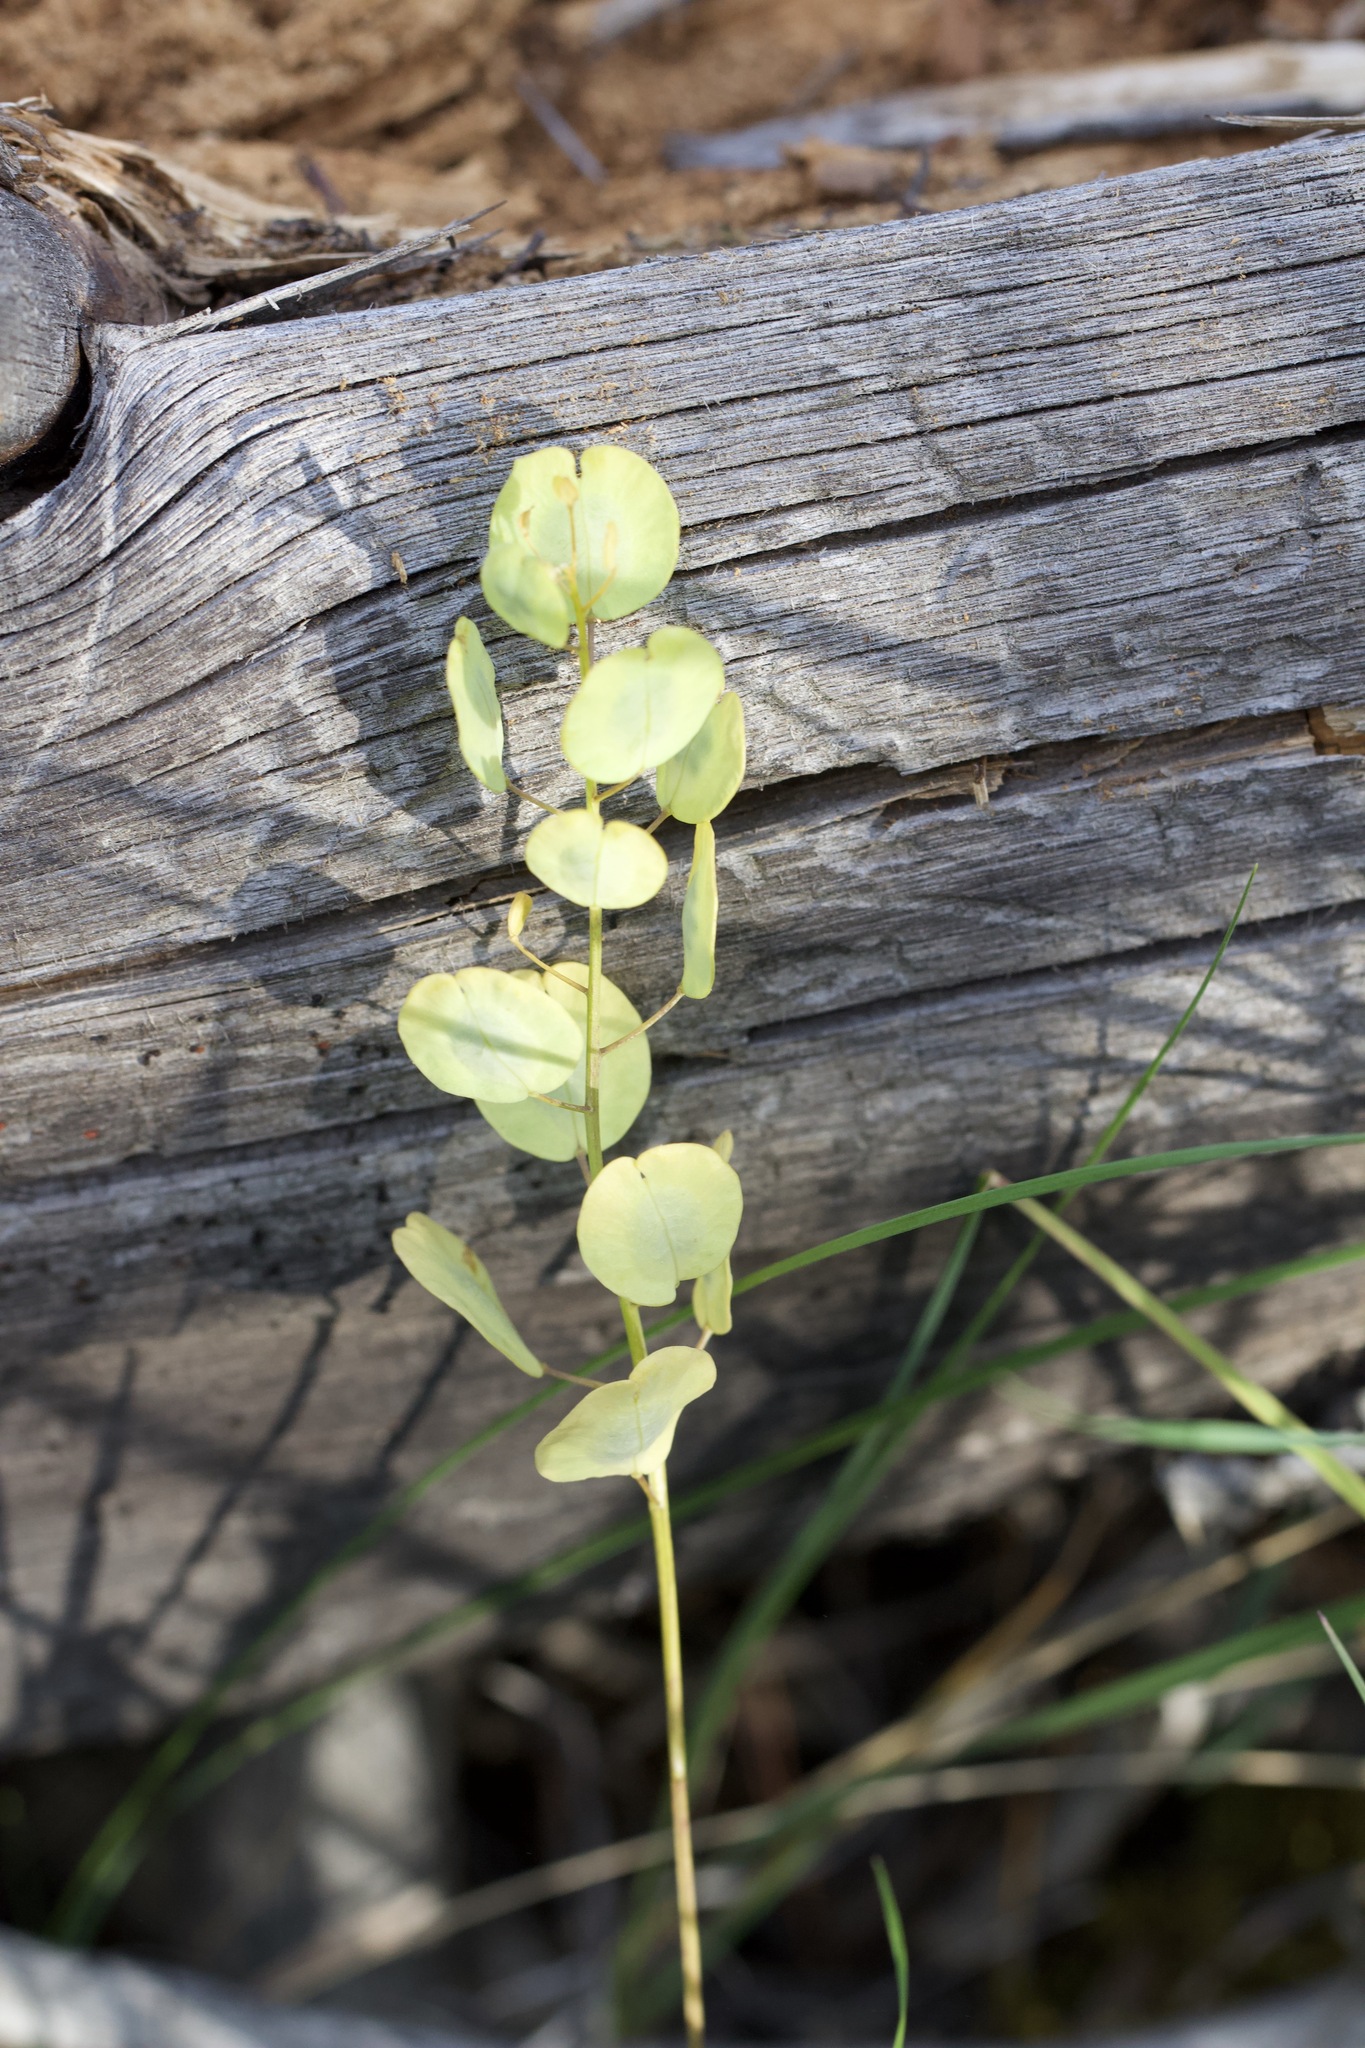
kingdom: Plantae
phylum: Tracheophyta
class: Magnoliopsida
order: Brassicales
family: Brassicaceae
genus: Thlaspi
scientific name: Thlaspi arvense
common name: Field pennycress
